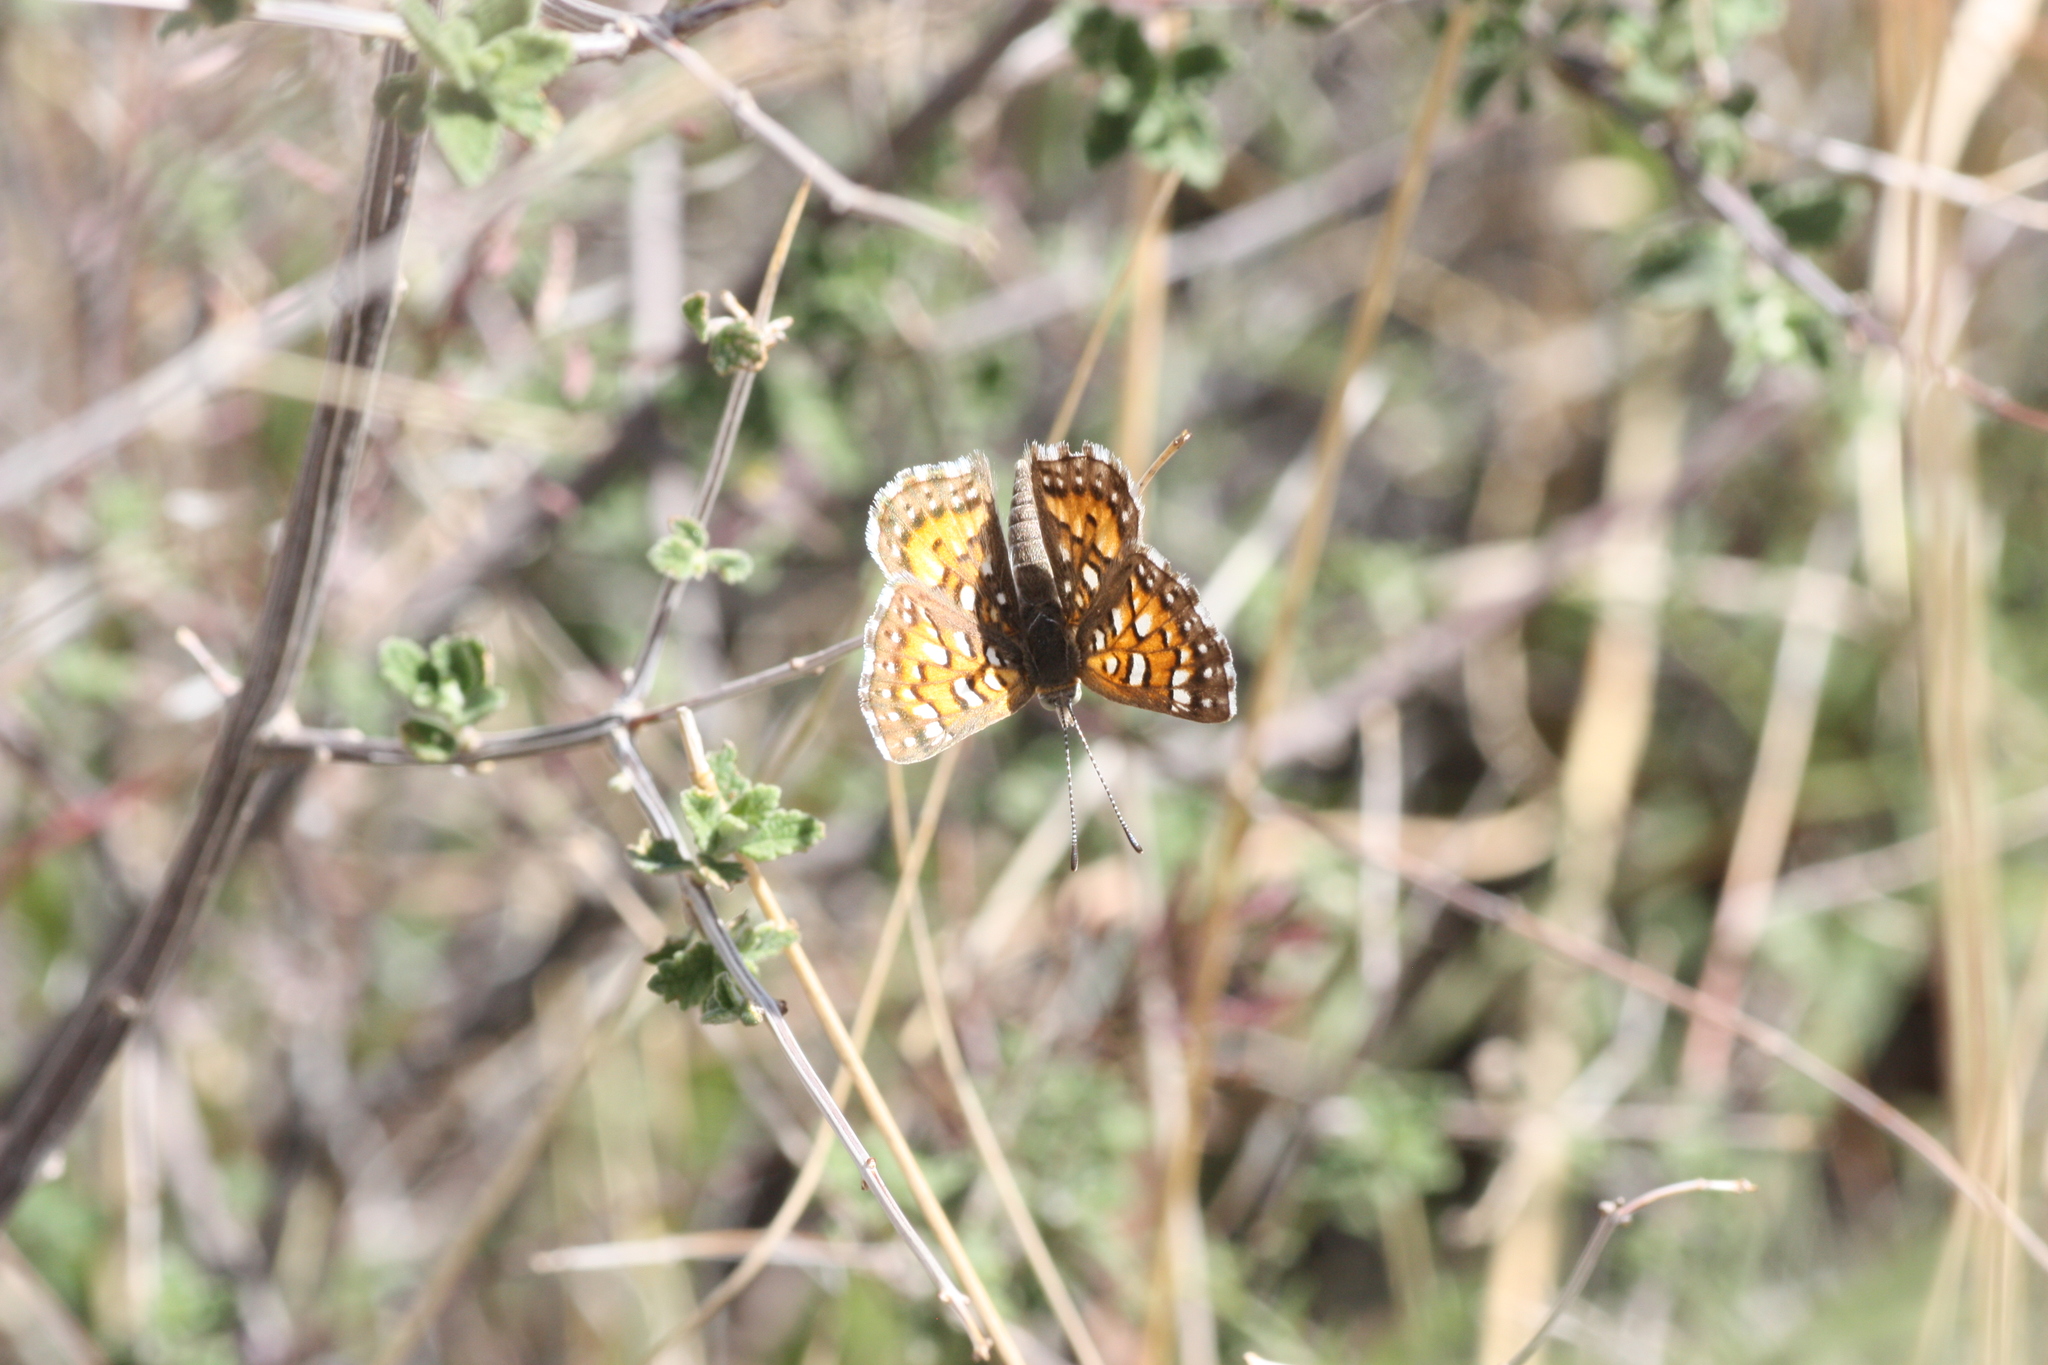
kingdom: Animalia
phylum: Arthropoda
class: Insecta
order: Lepidoptera
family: Riodinidae
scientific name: Riodinidae
